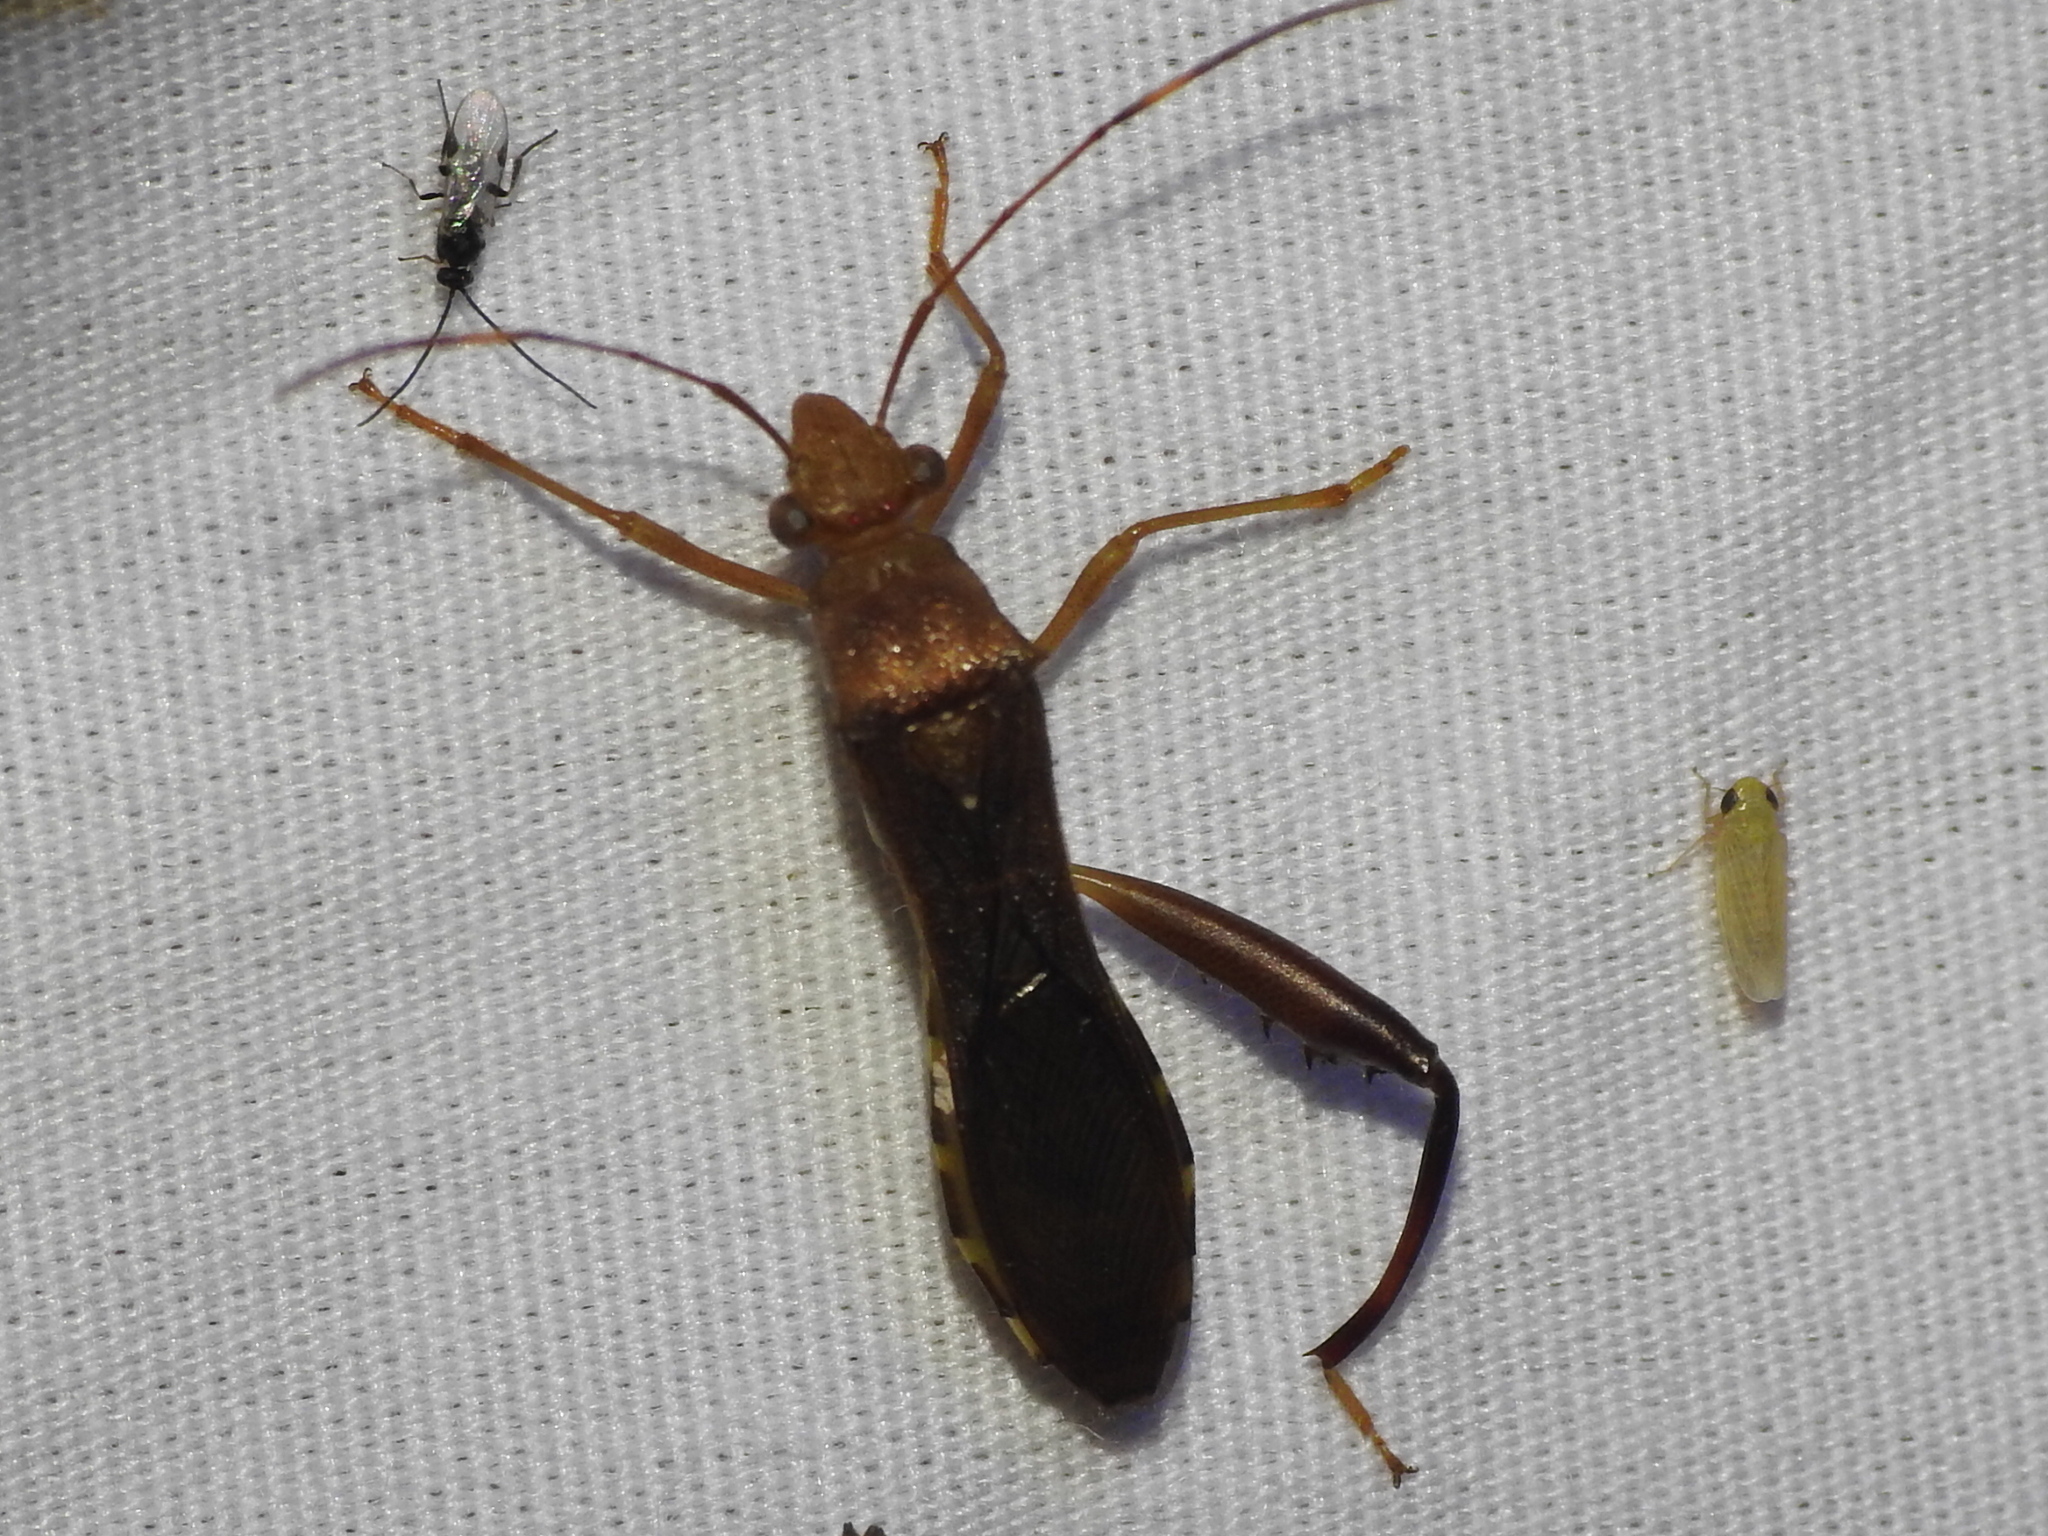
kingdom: Animalia
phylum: Arthropoda
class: Insecta
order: Hemiptera
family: Alydidae
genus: Hyalymenus
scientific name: Hyalymenus tarsatus
